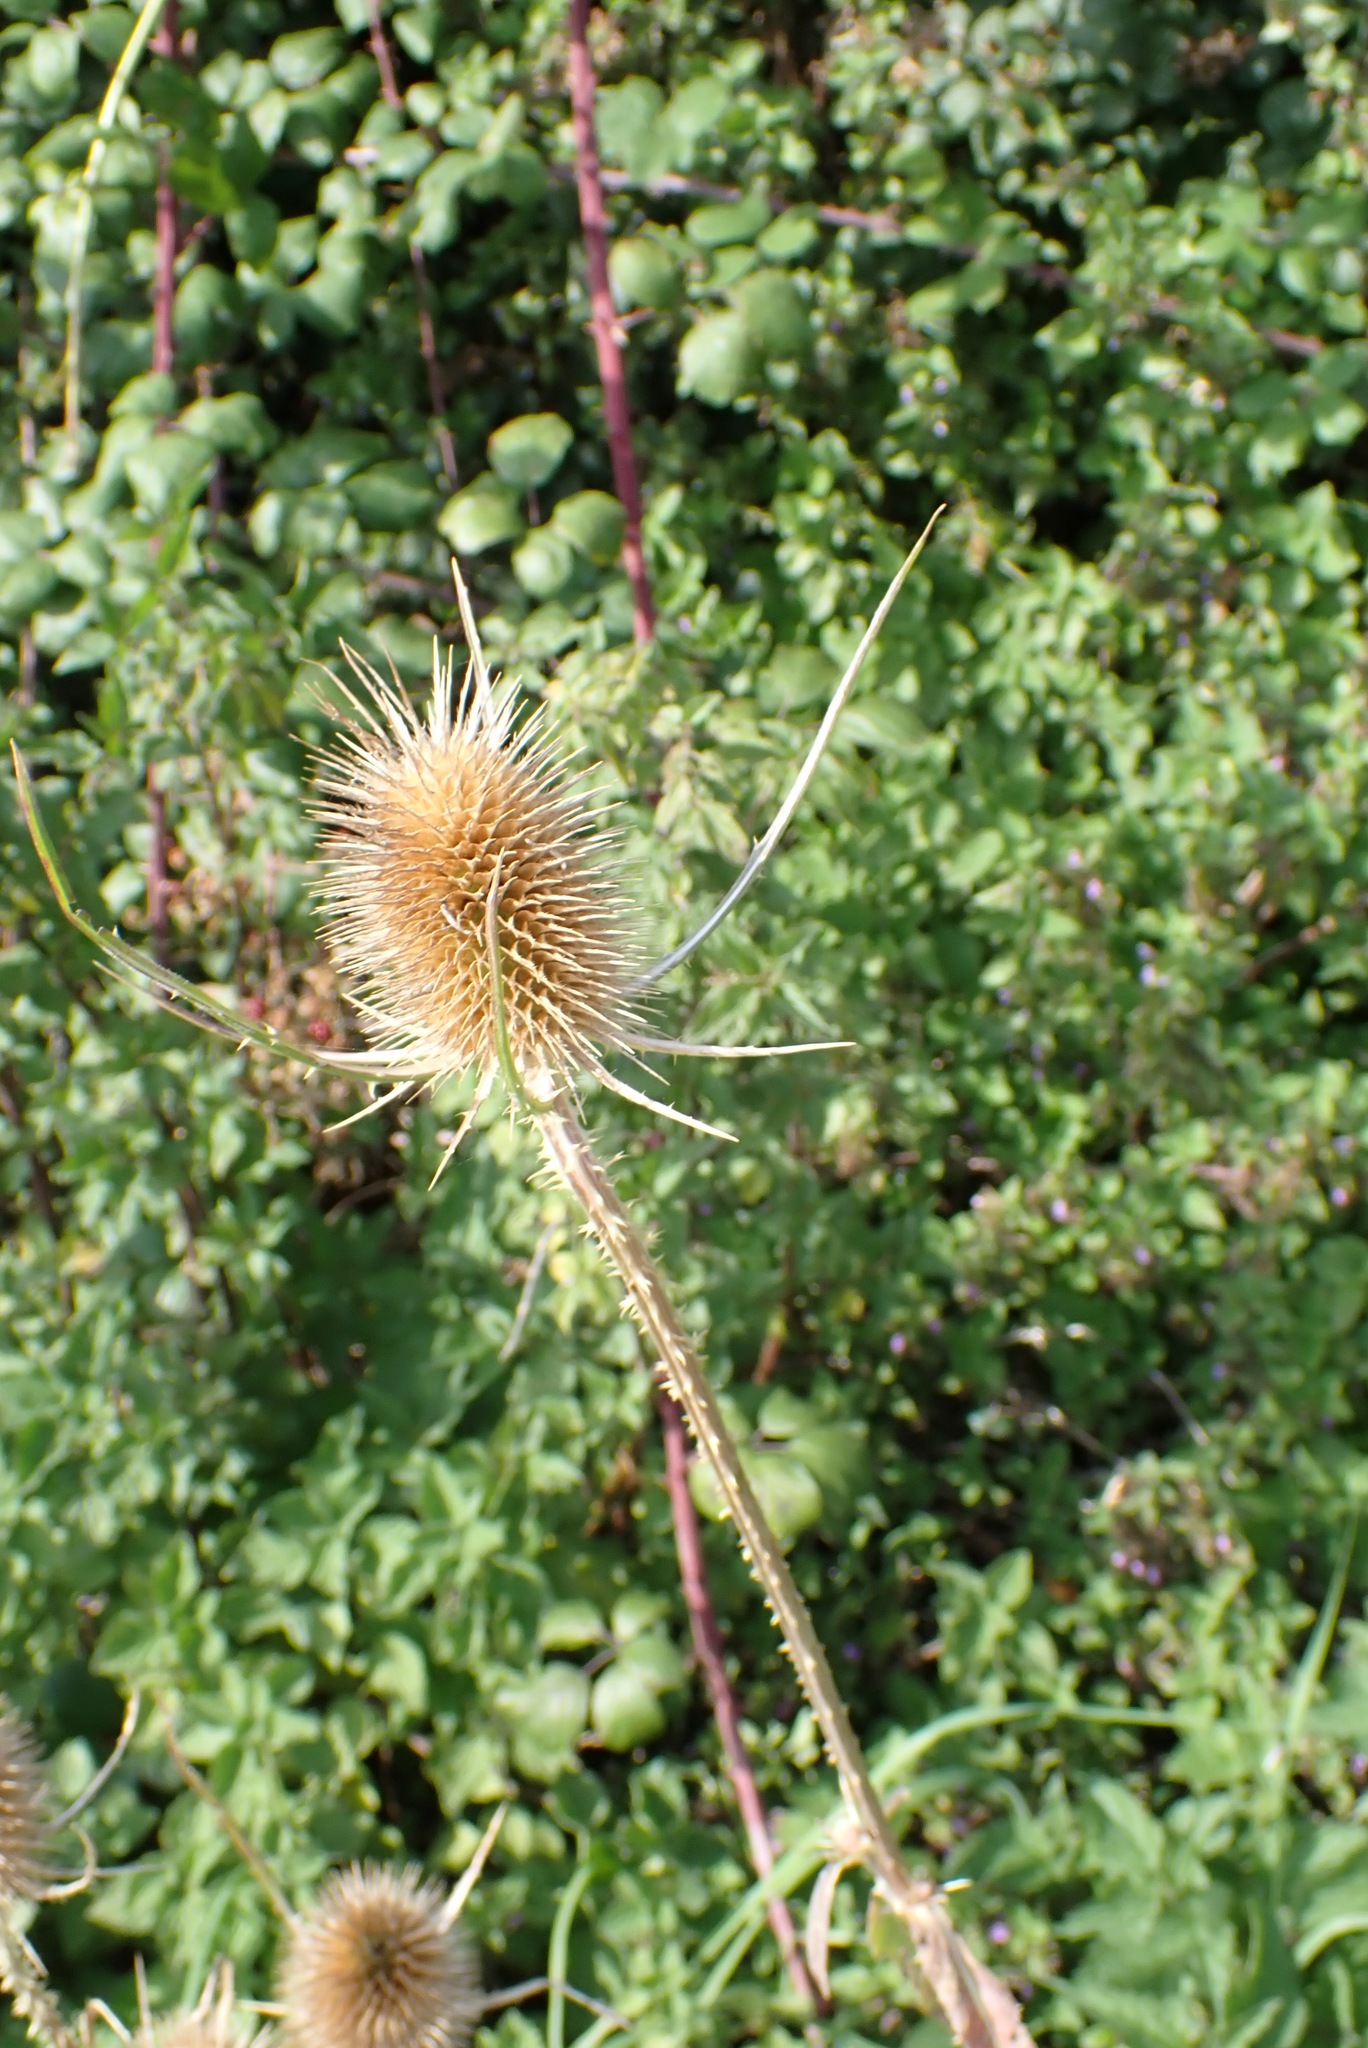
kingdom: Plantae
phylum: Tracheophyta
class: Magnoliopsida
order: Dipsacales
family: Caprifoliaceae
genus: Dipsacus
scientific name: Dipsacus fullonum
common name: Teasel
